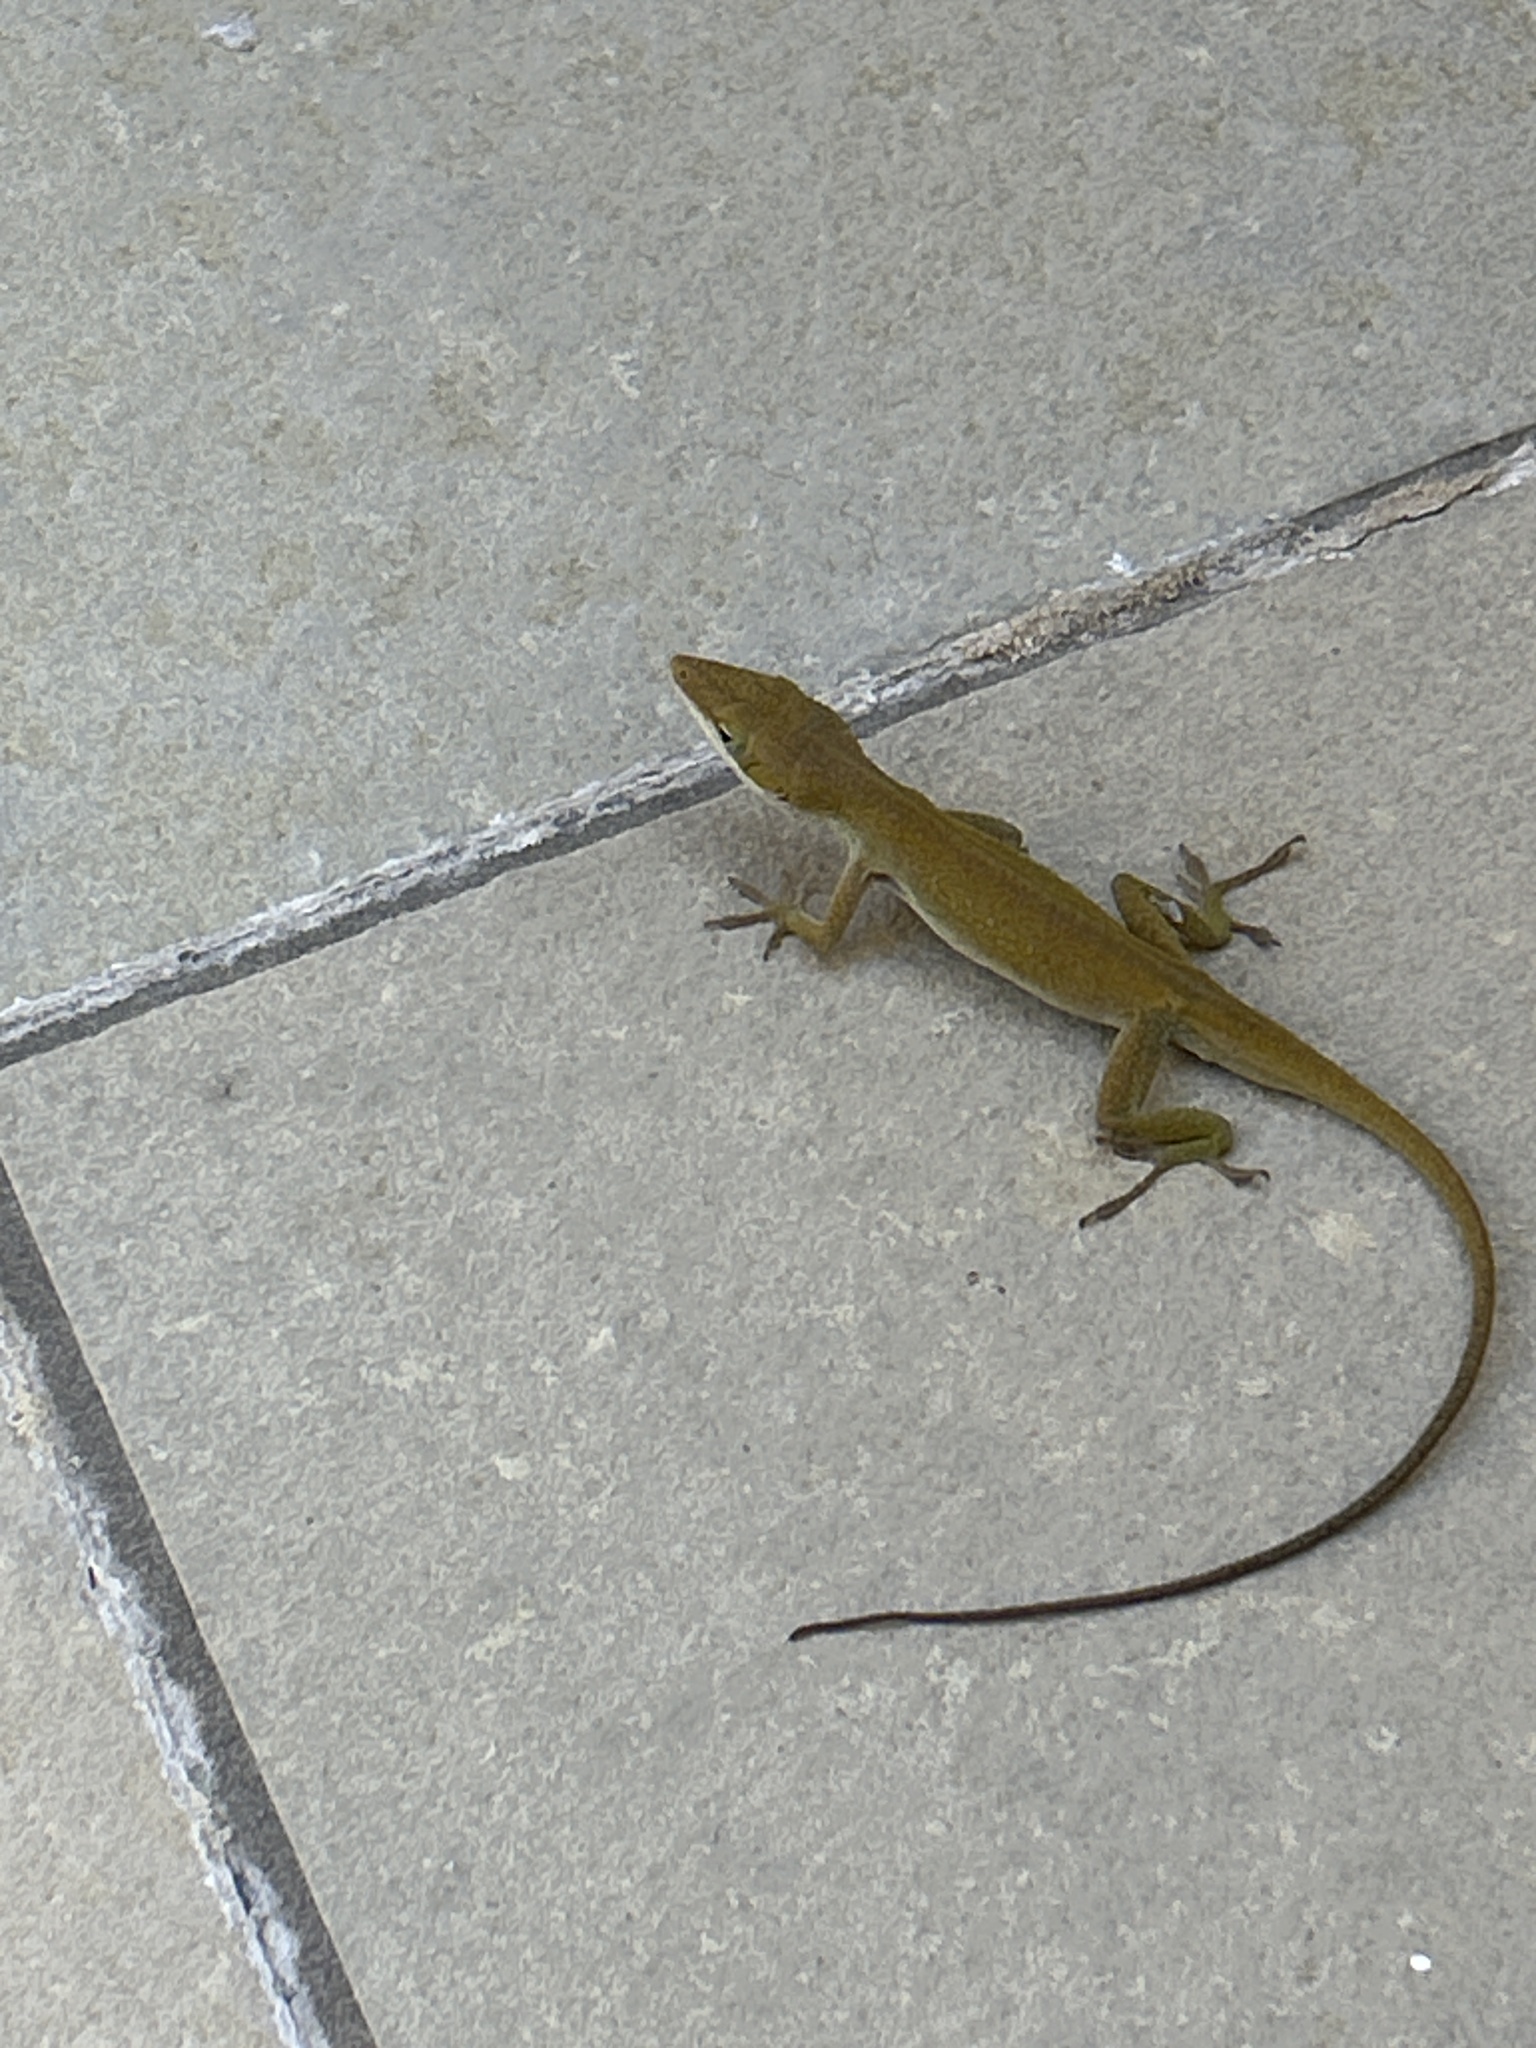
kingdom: Animalia
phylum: Chordata
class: Squamata
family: Dactyloidae
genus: Anolis
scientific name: Anolis carolinensis
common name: Green anole
